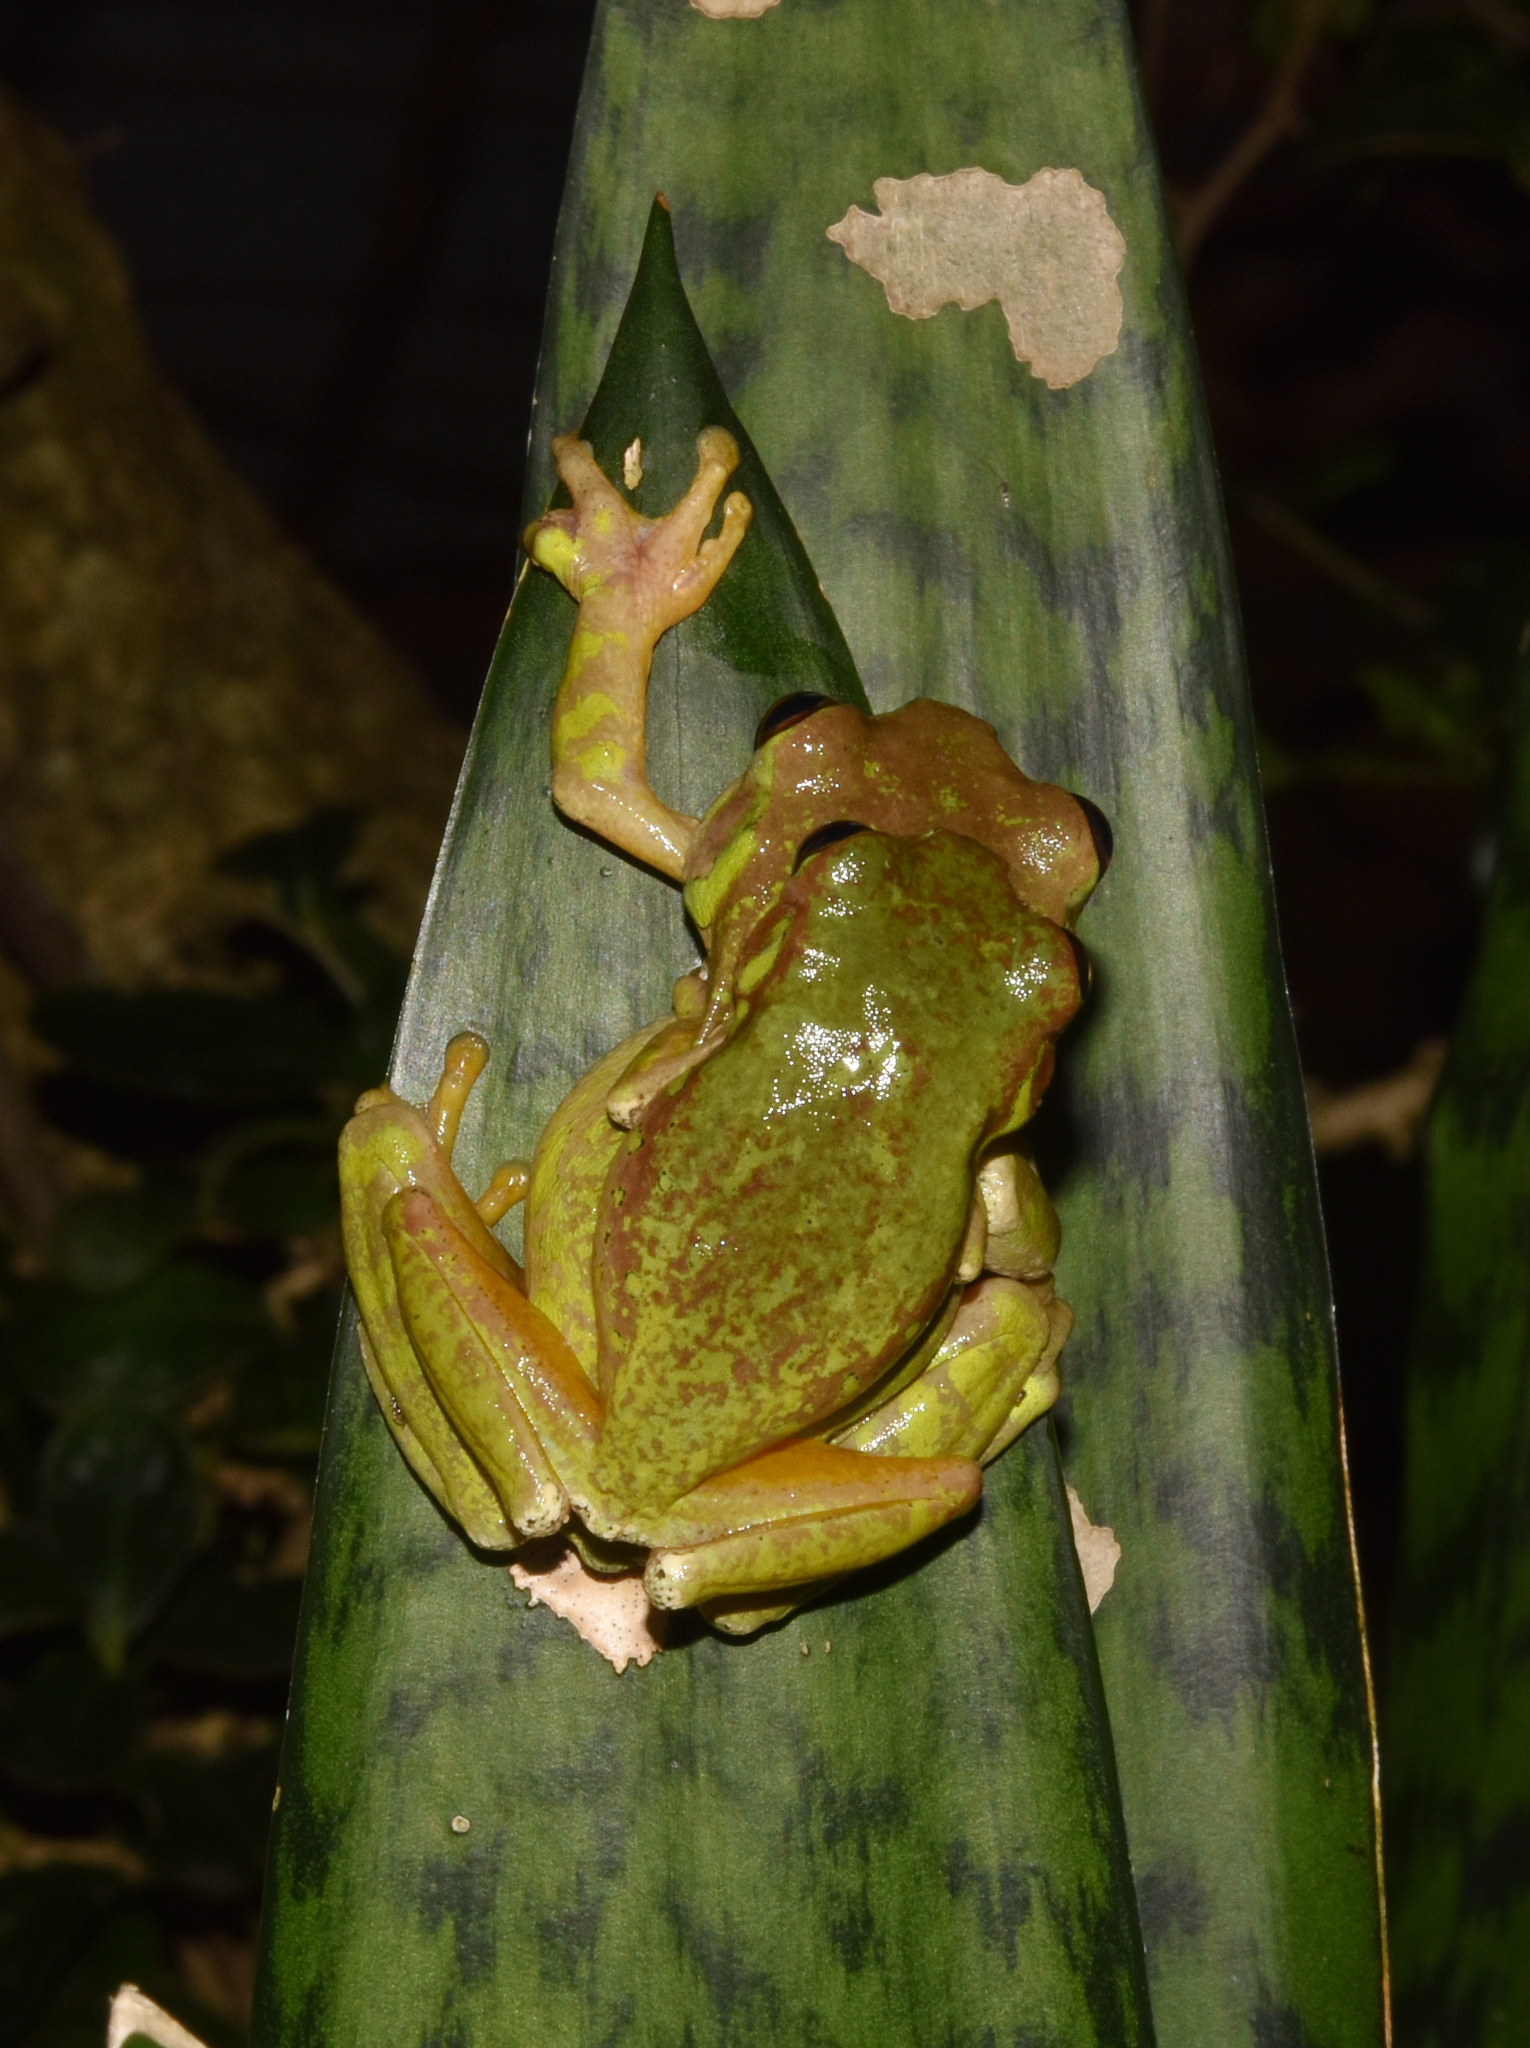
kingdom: Animalia
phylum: Chordata
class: Amphibia
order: Anura
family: Arthroleptidae
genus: Leptopelis
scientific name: Leptopelis natalensis
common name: Natal tree frog
